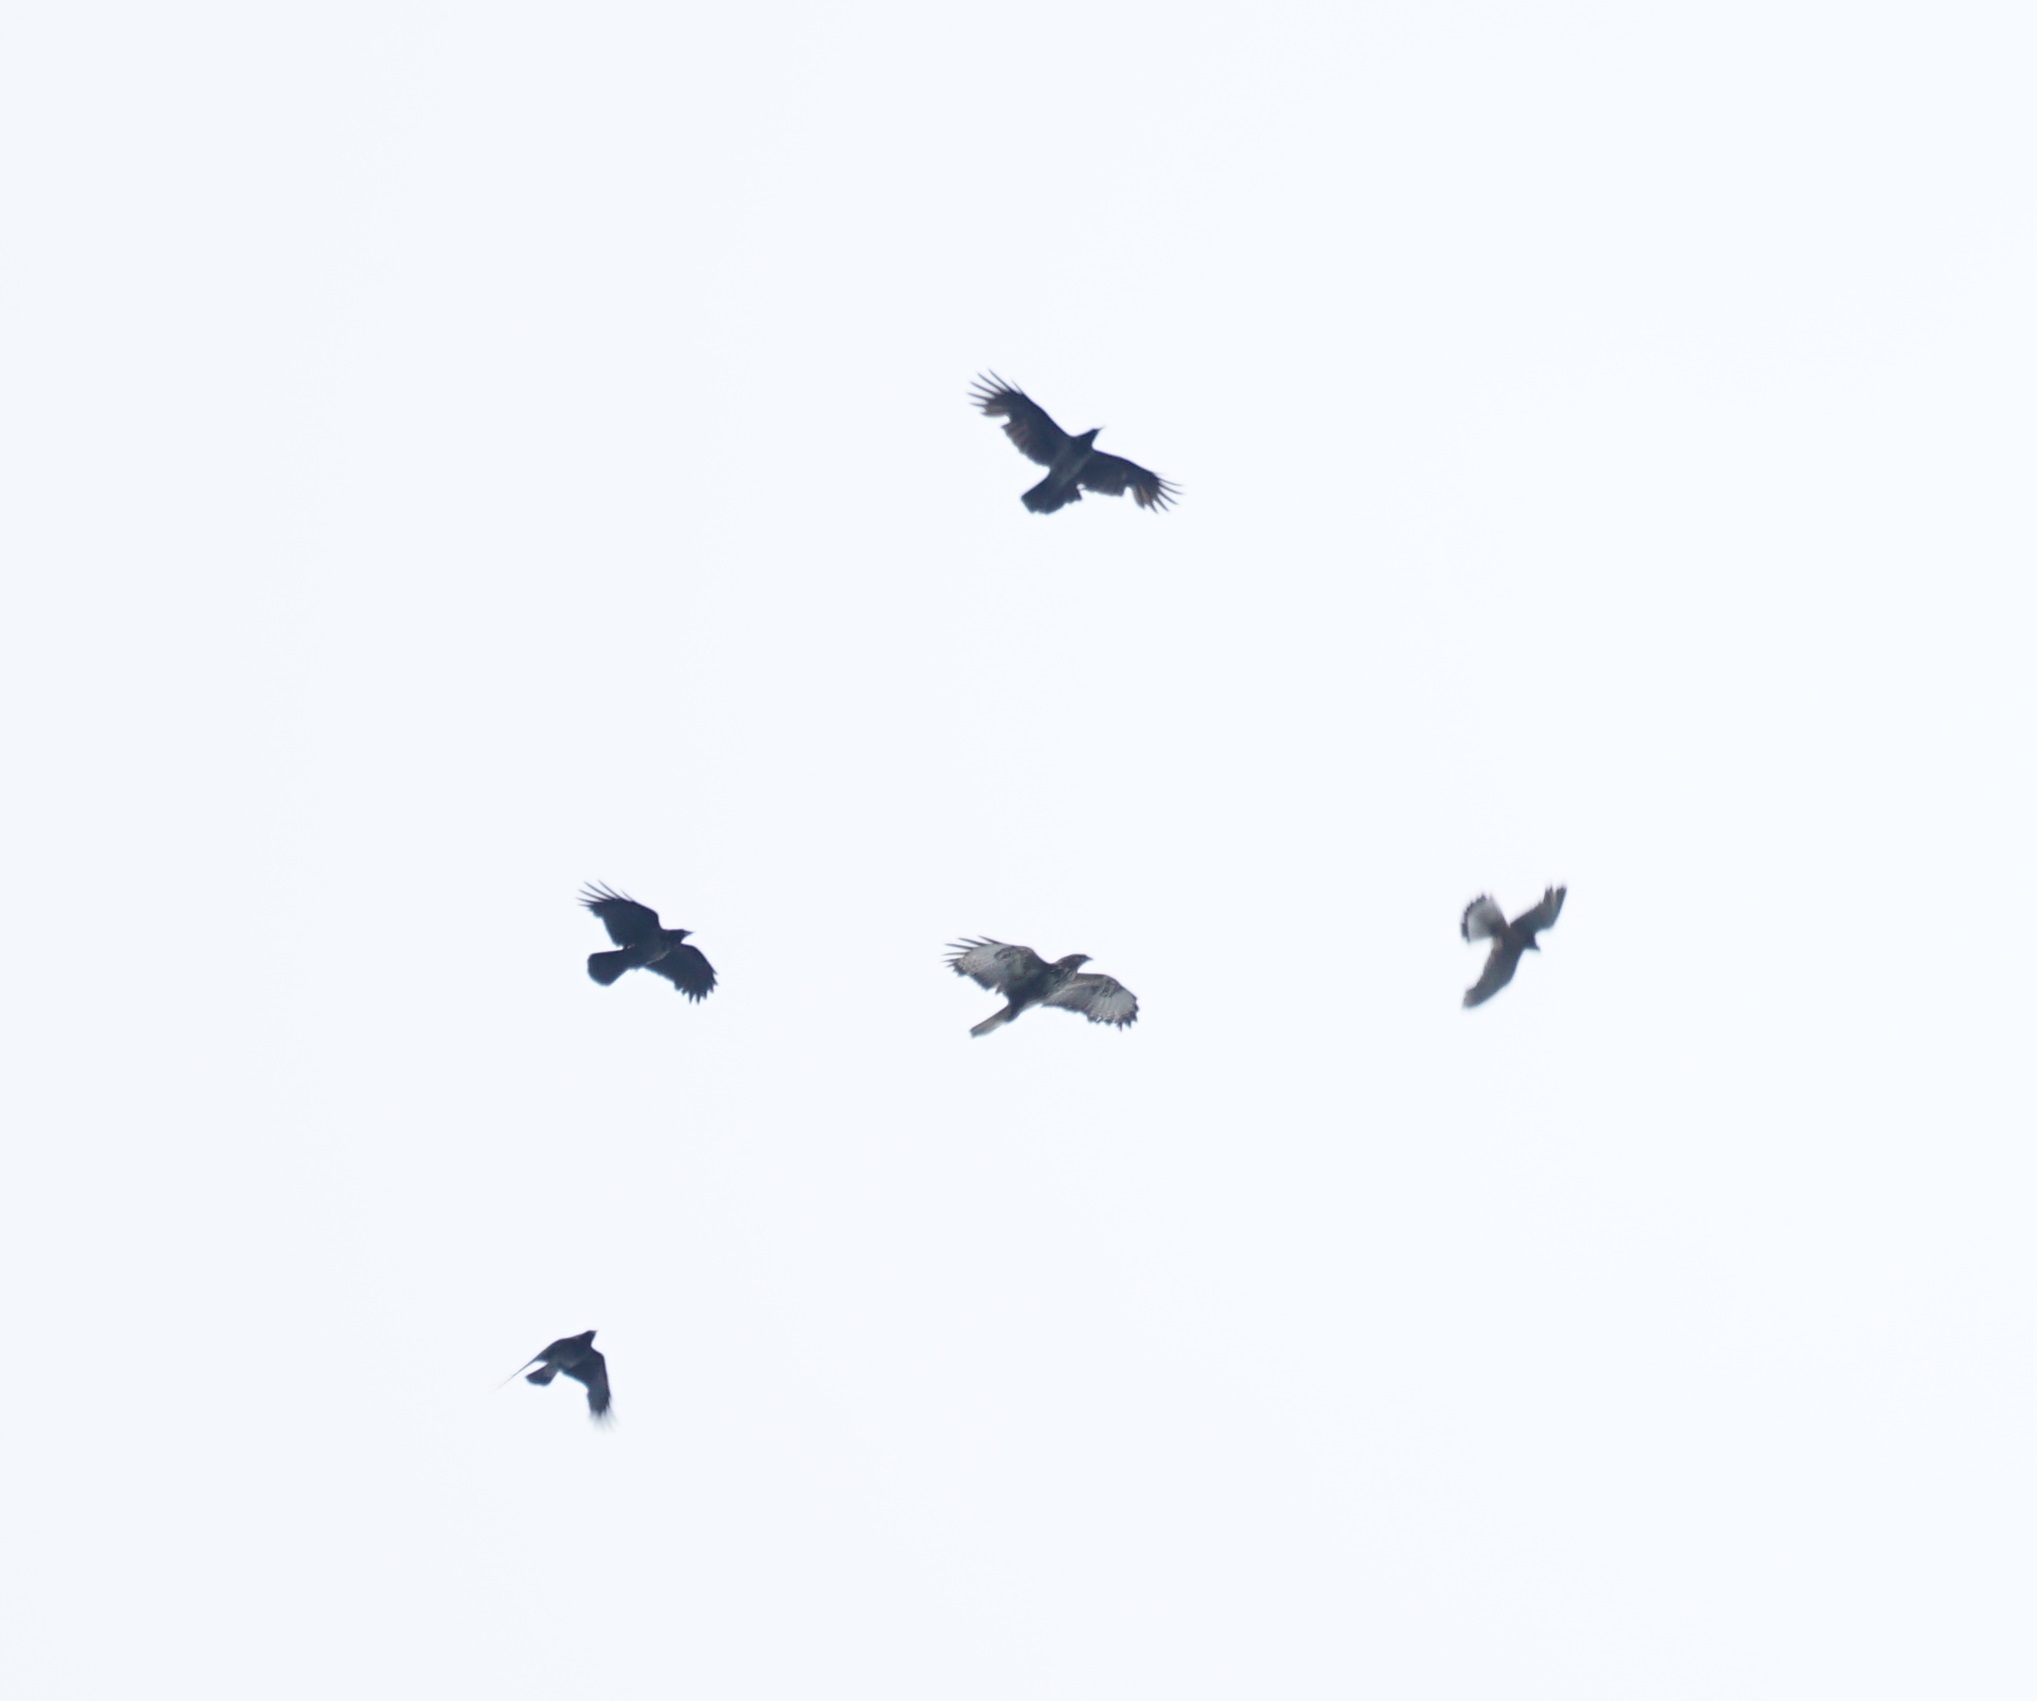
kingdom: Animalia
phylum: Chordata
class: Aves
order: Falconiformes
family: Falconidae
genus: Falco
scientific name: Falco tinnunculus
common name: Common kestrel
